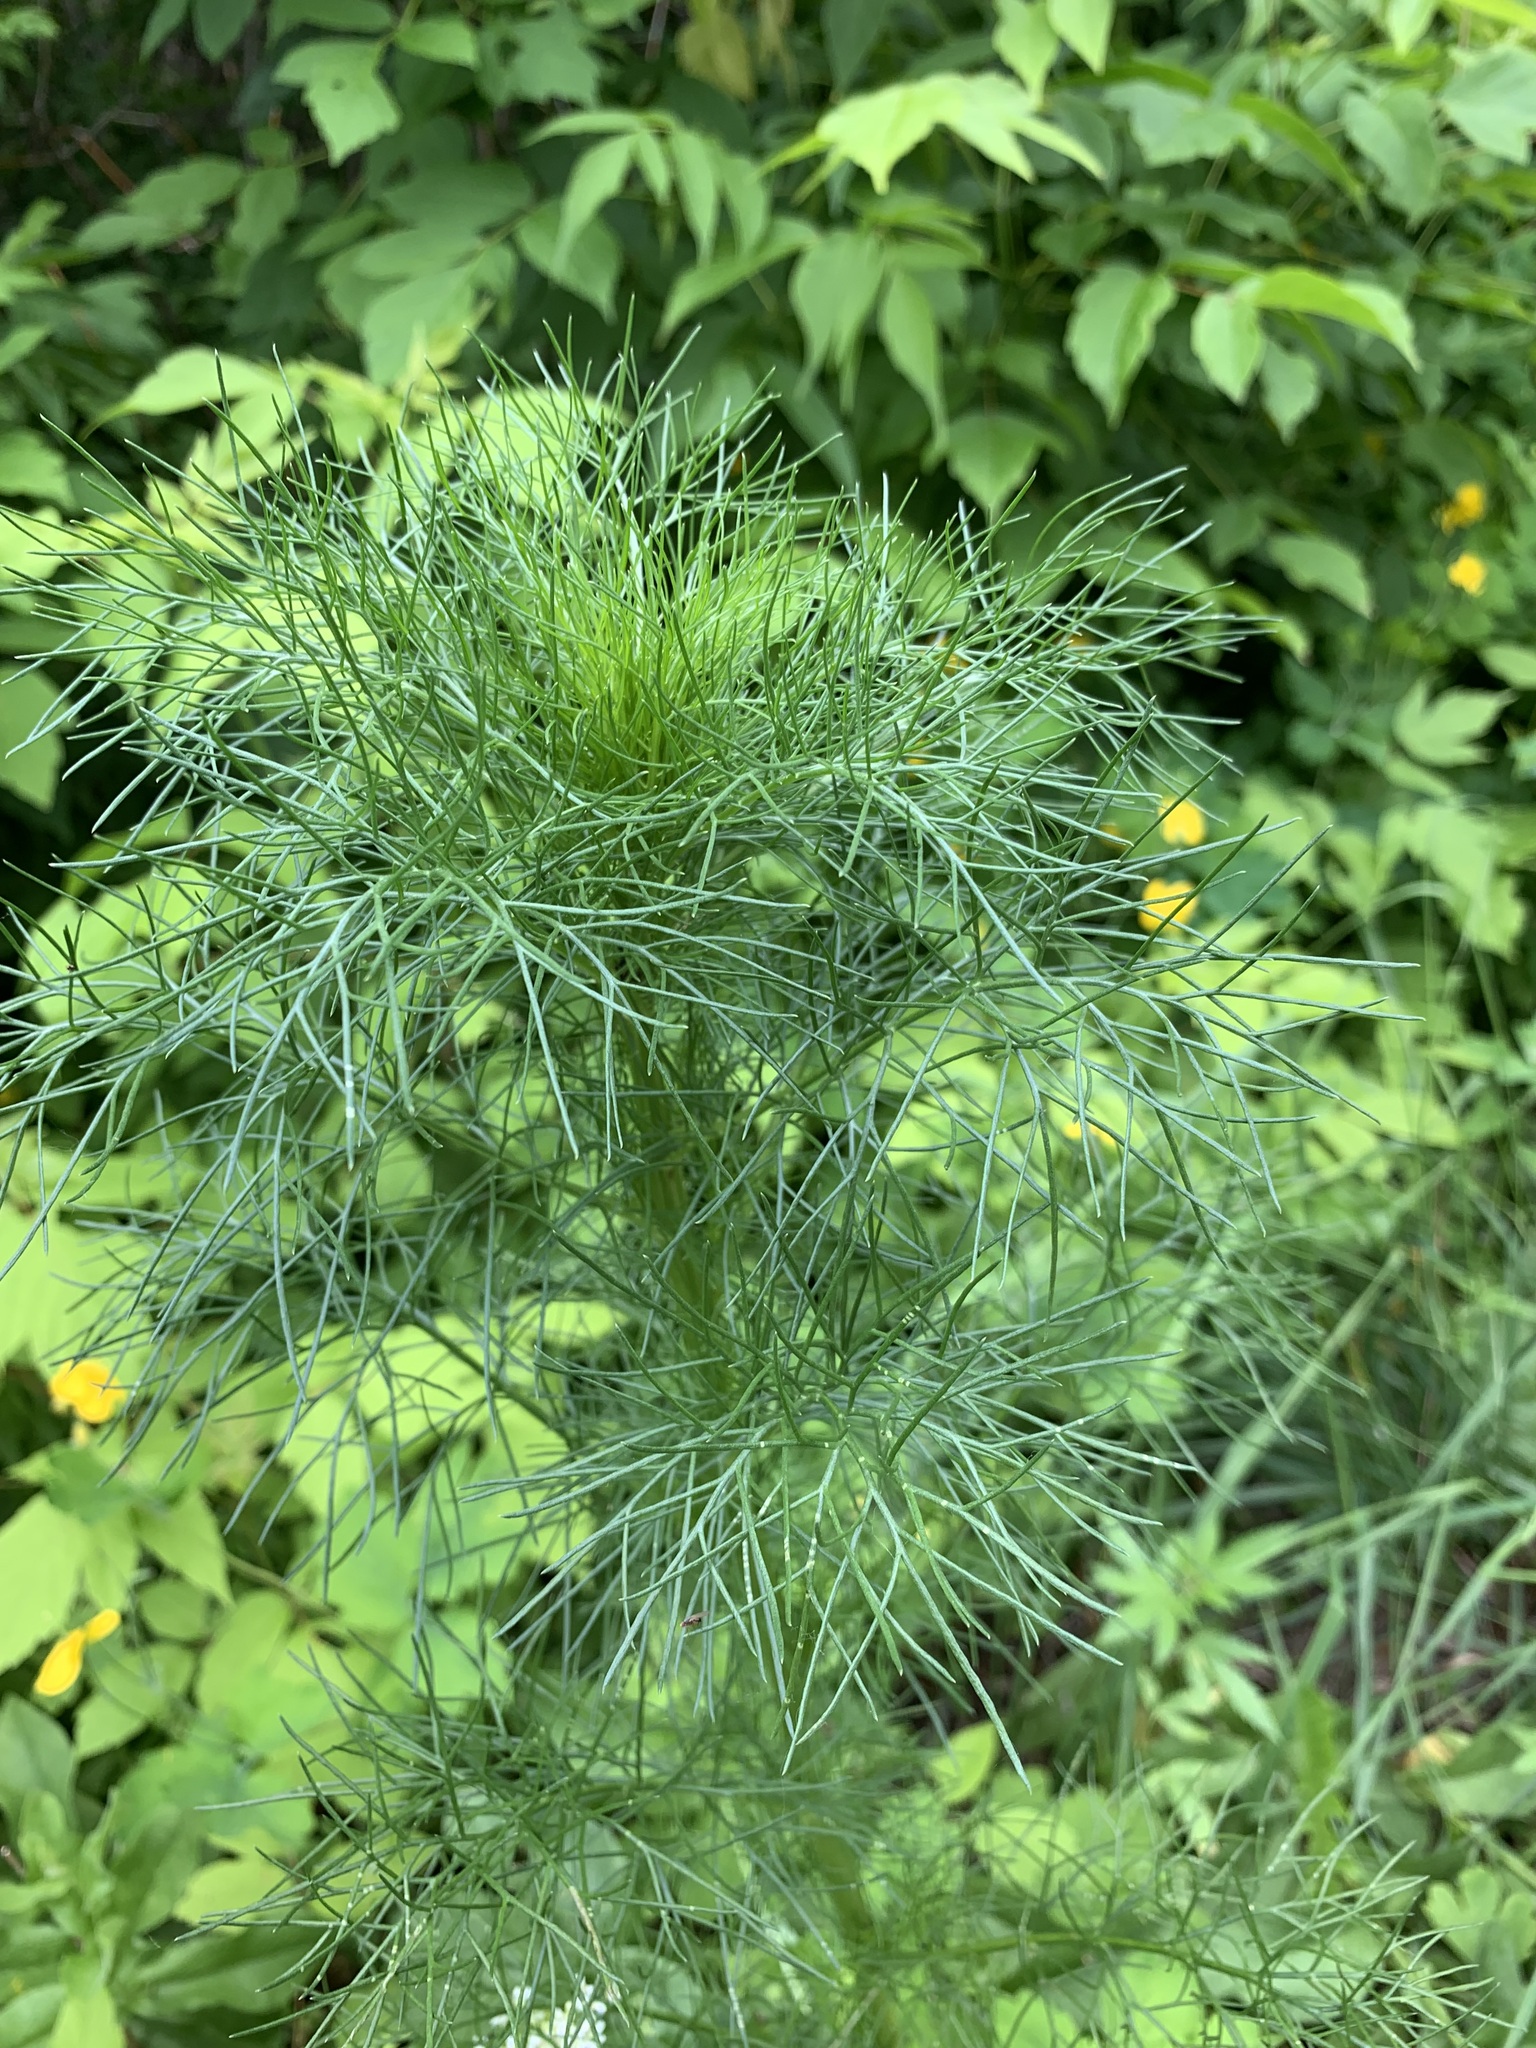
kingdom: Plantae
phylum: Tracheophyta
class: Magnoliopsida
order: Asterales
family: Asteraceae
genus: Tripleurospermum
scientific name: Tripleurospermum inodorum
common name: Scentless mayweed
